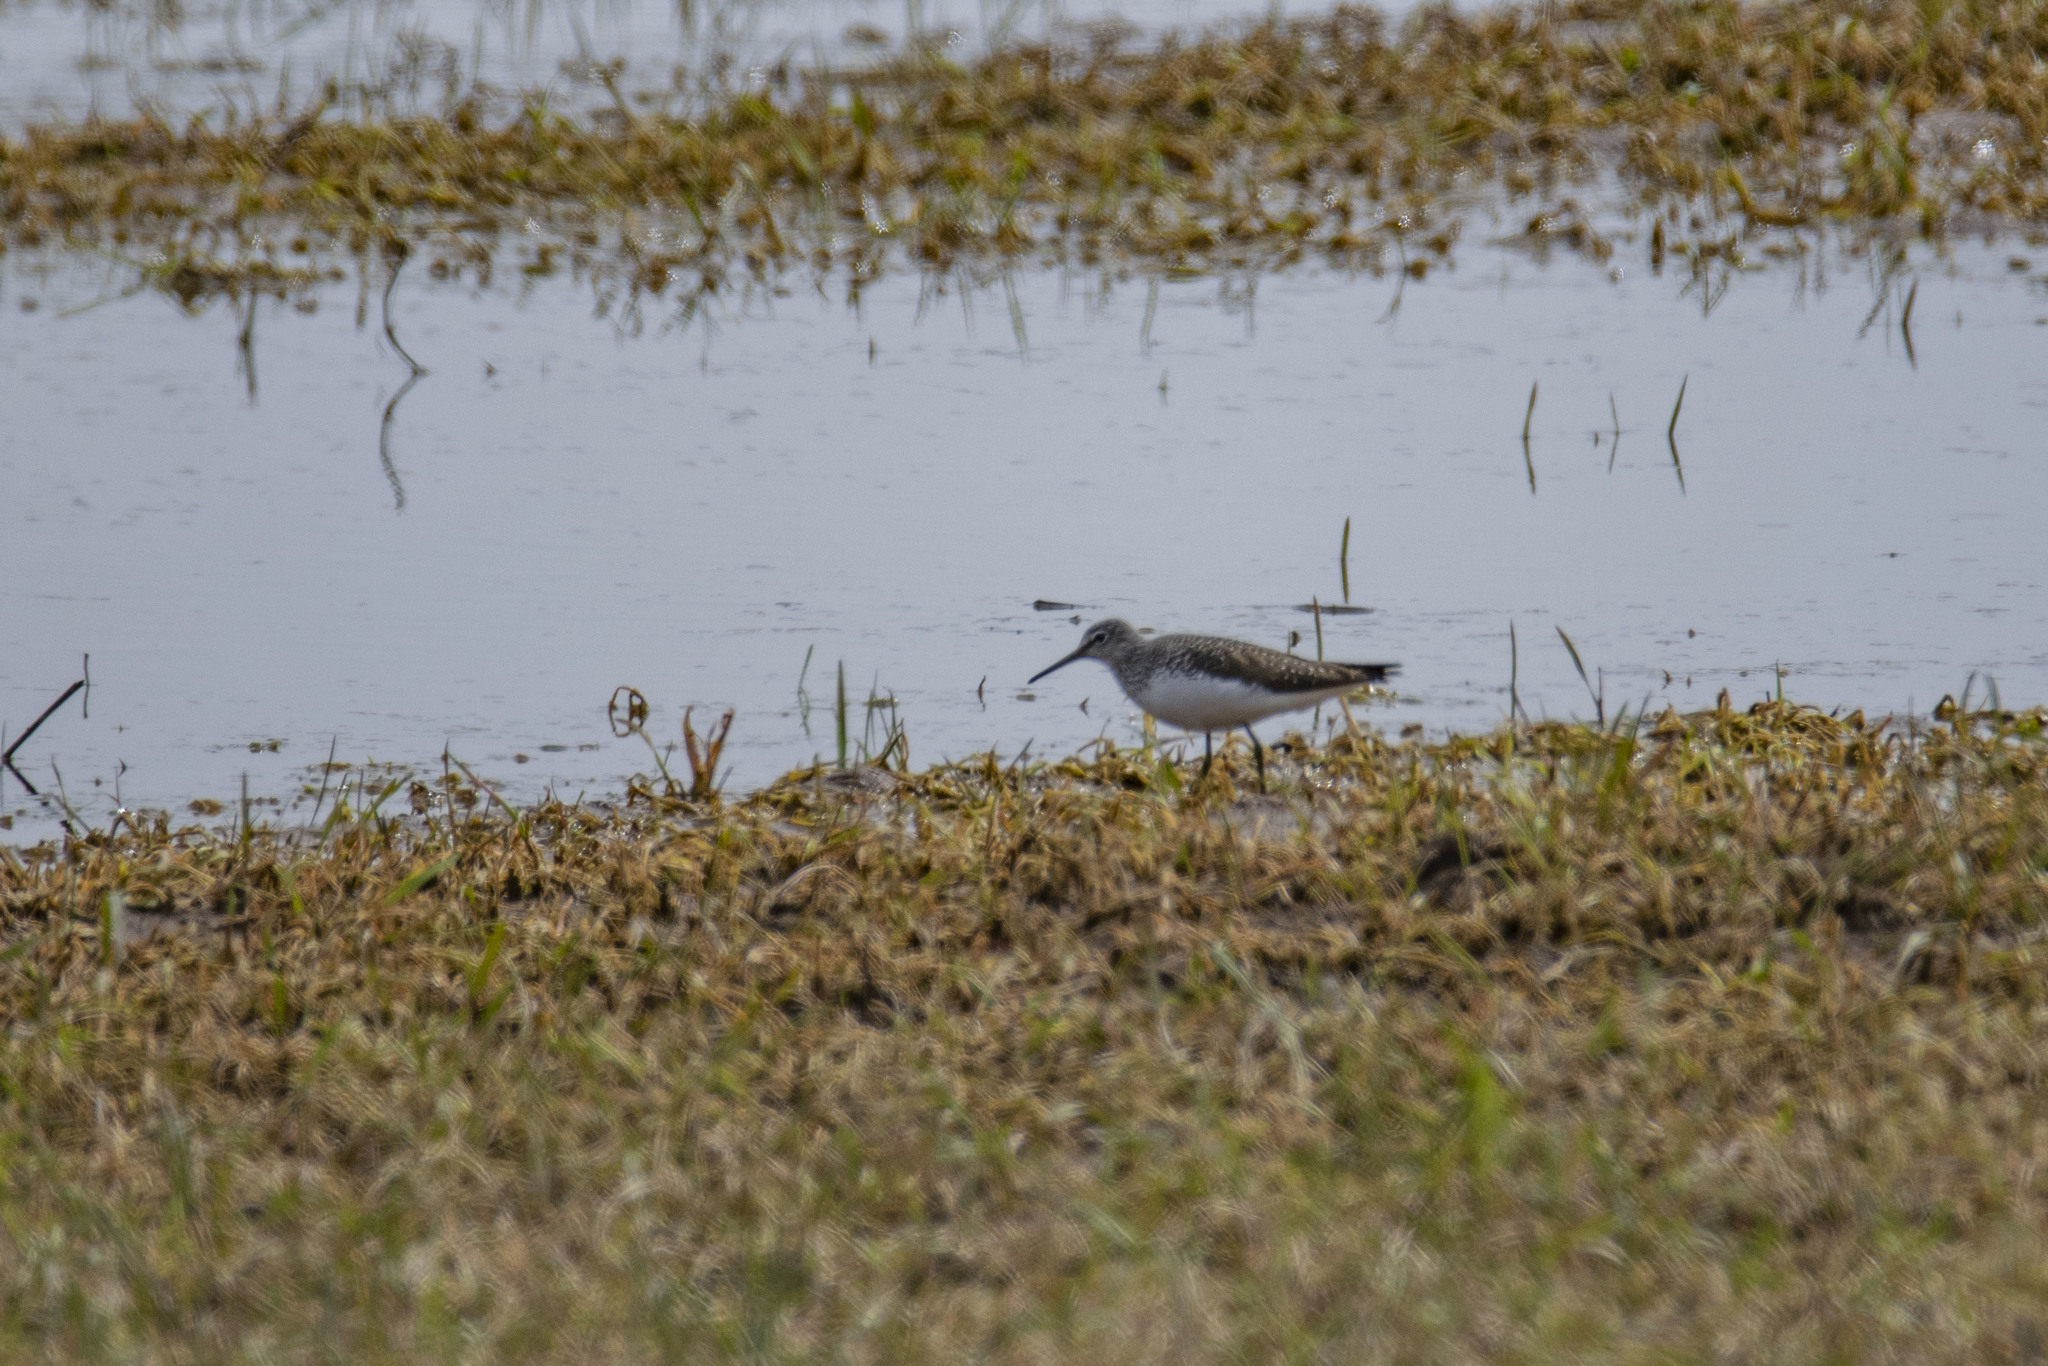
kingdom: Animalia
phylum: Chordata
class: Aves
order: Charadriiformes
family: Scolopacidae
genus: Tringa
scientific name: Tringa ochropus
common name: Green sandpiper
